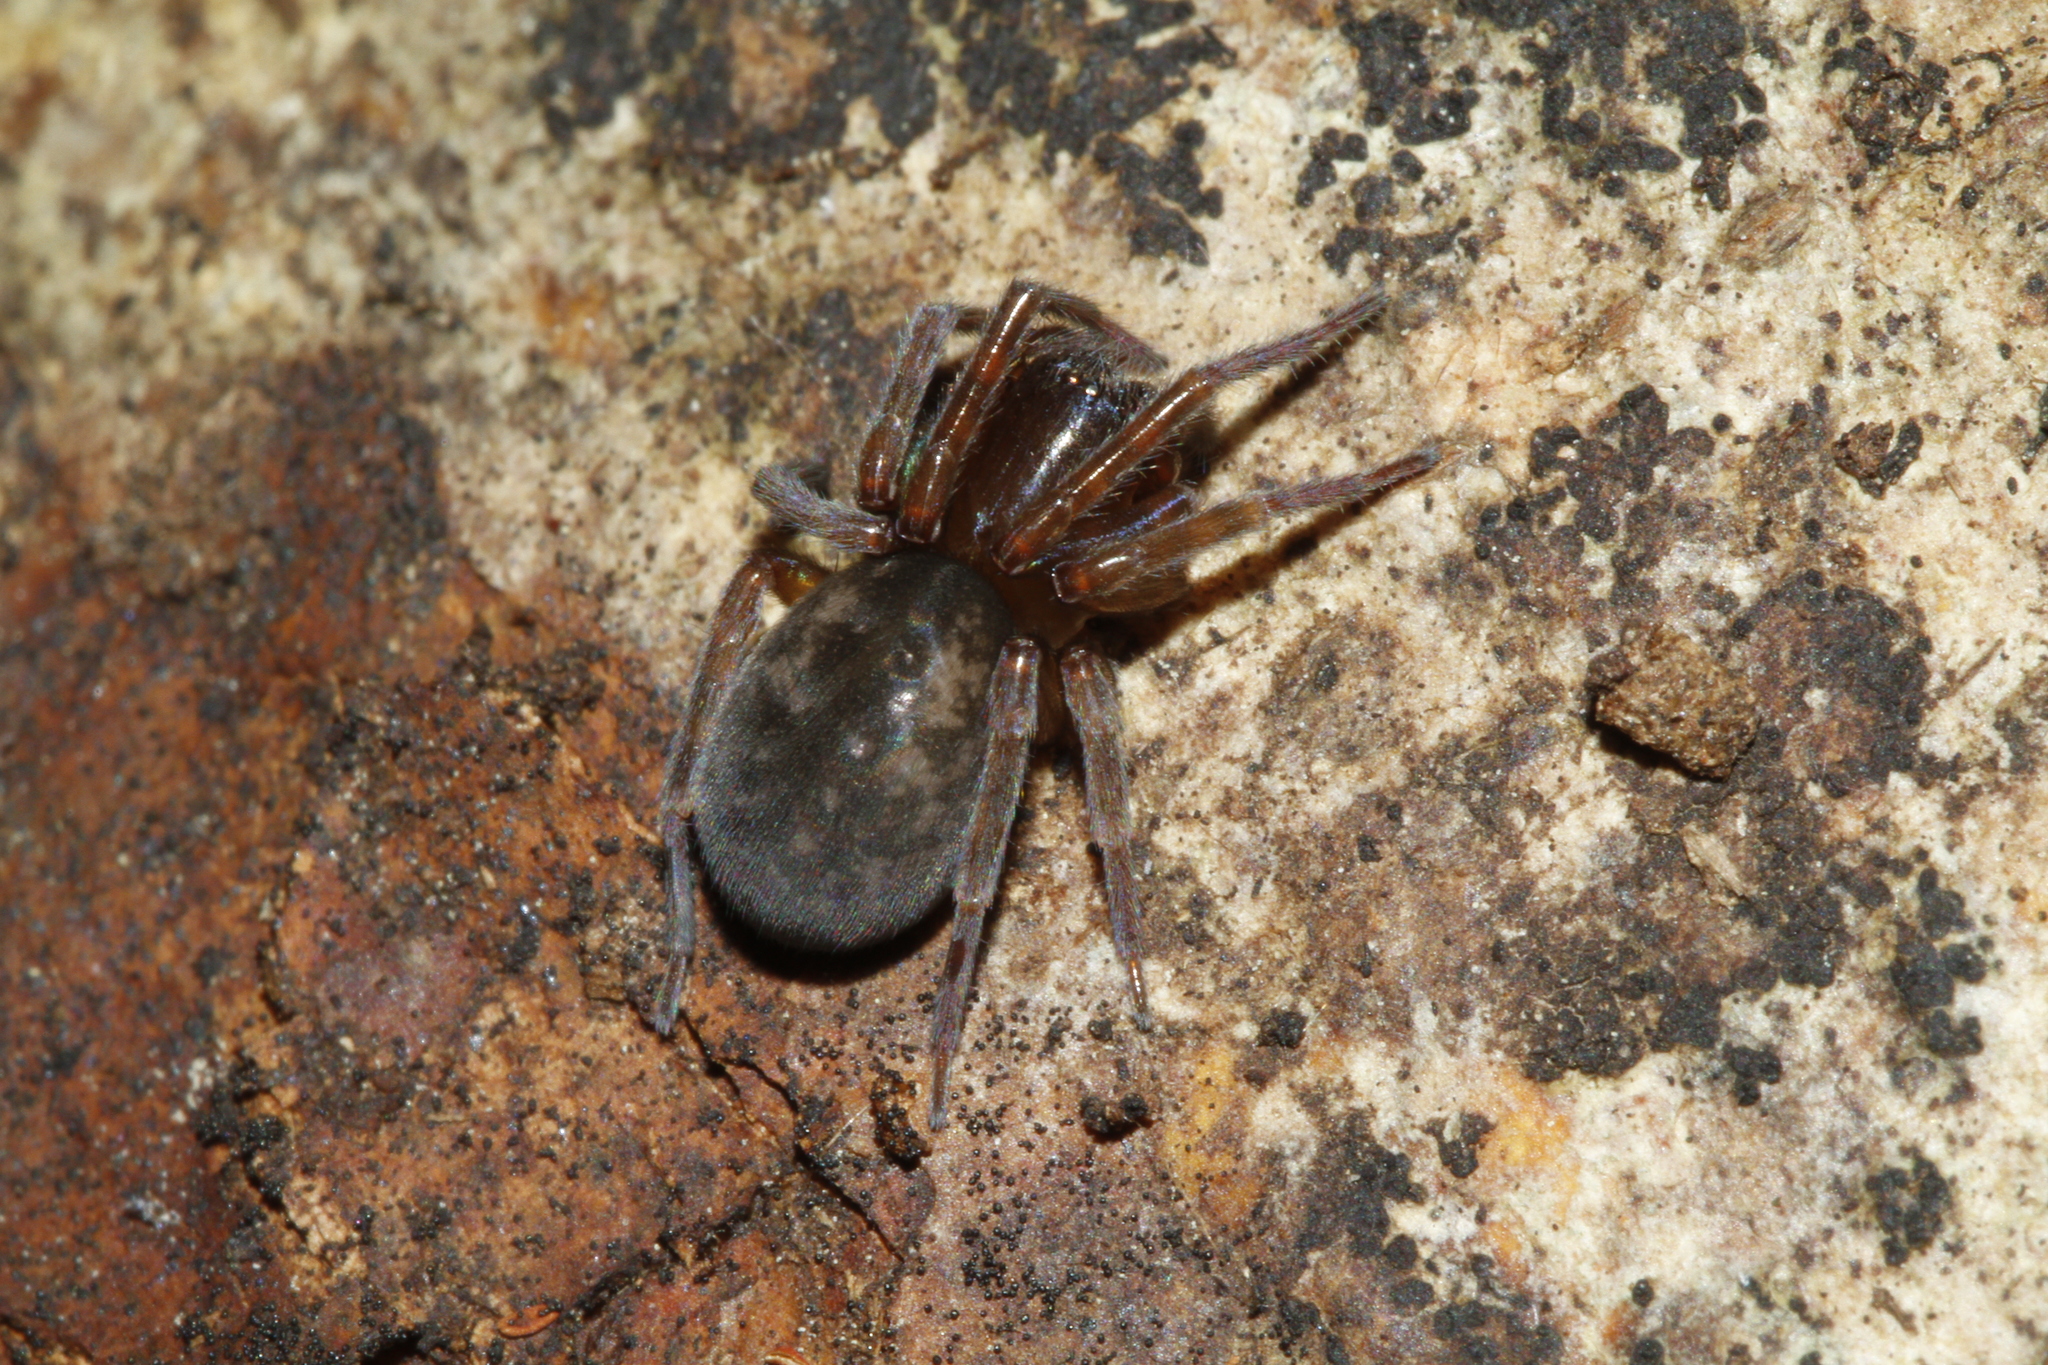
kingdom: Animalia
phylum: Arthropoda
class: Arachnida
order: Araneae
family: Amaurobiidae
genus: Amaurobius
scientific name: Amaurobius erberi
